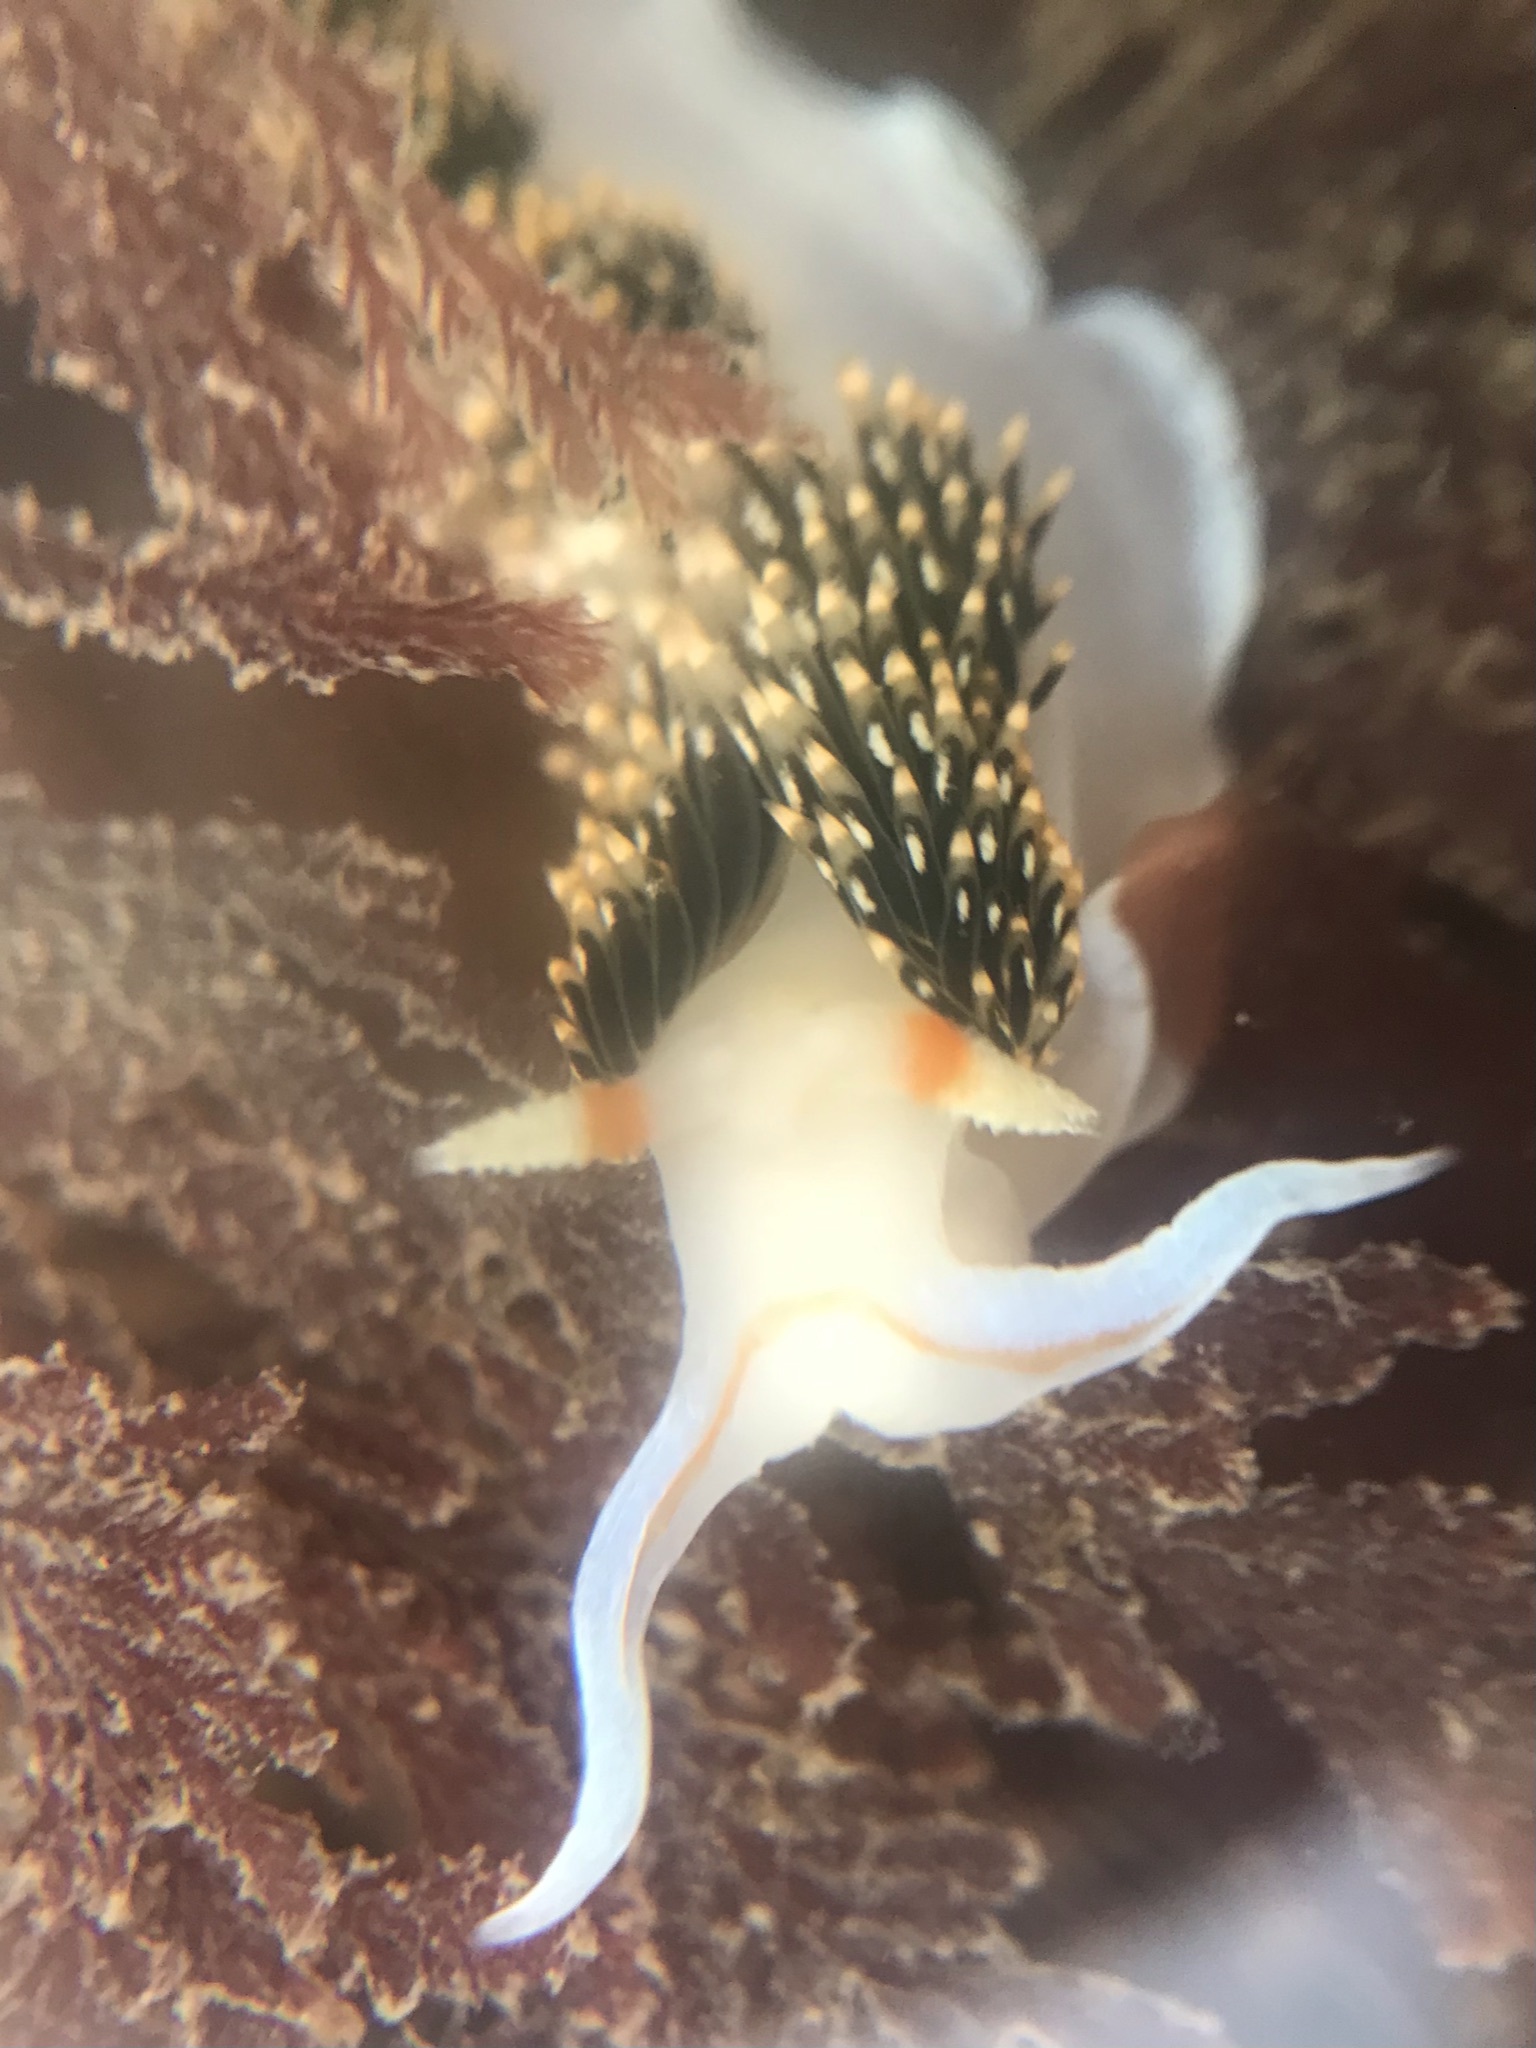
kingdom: Animalia
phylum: Mollusca
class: Gastropoda
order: Nudibranchia
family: Facelinidae
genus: Phidiana
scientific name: Phidiana hiltoni
